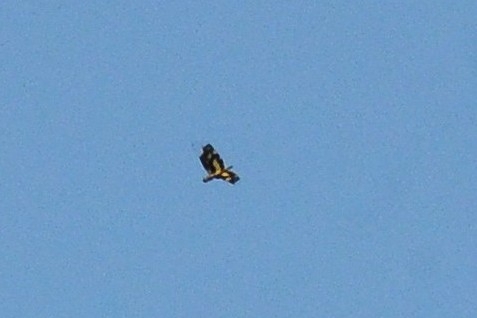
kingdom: Animalia
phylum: Arthropoda
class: Insecta
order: Odonata
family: Libellulidae
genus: Rhyothemis
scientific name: Rhyothemis variegata
